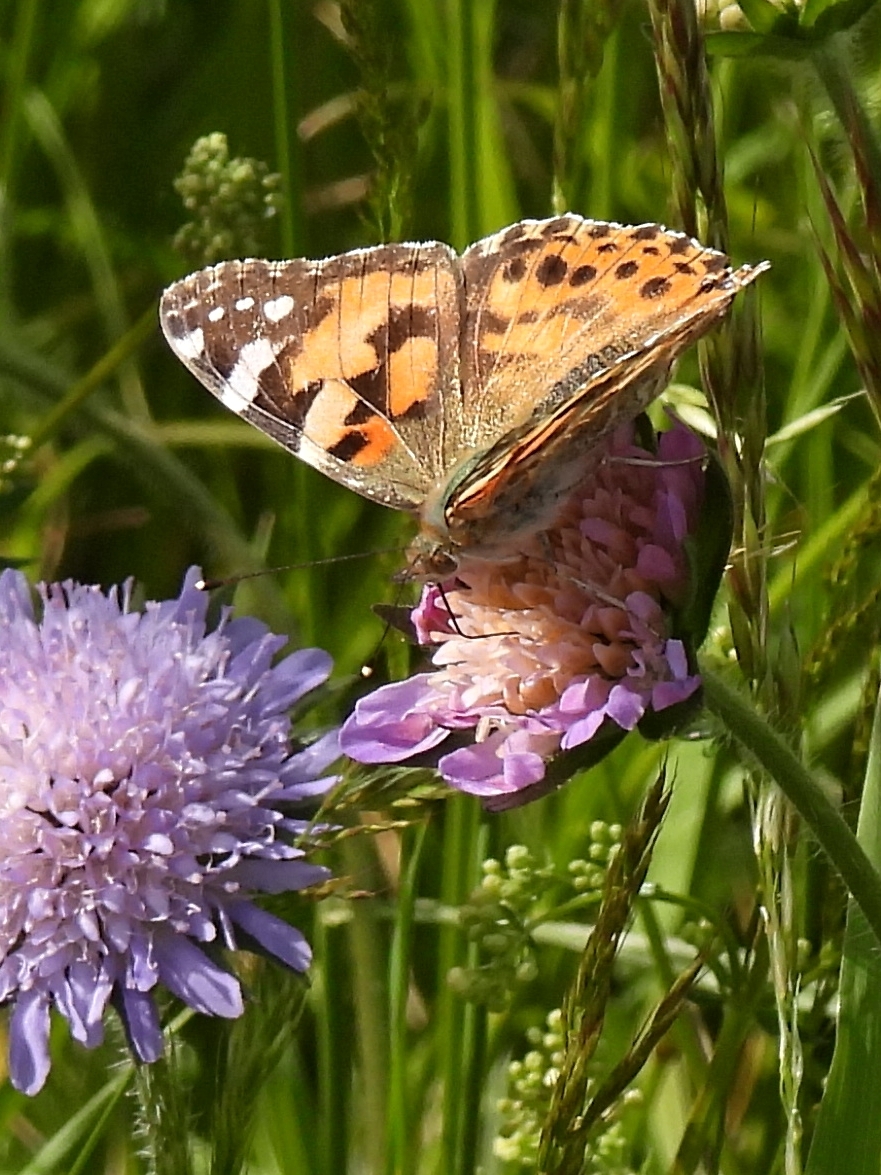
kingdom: Animalia
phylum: Arthropoda
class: Insecta
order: Lepidoptera
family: Nymphalidae
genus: Vanessa
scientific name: Vanessa cardui
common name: Painted lady
